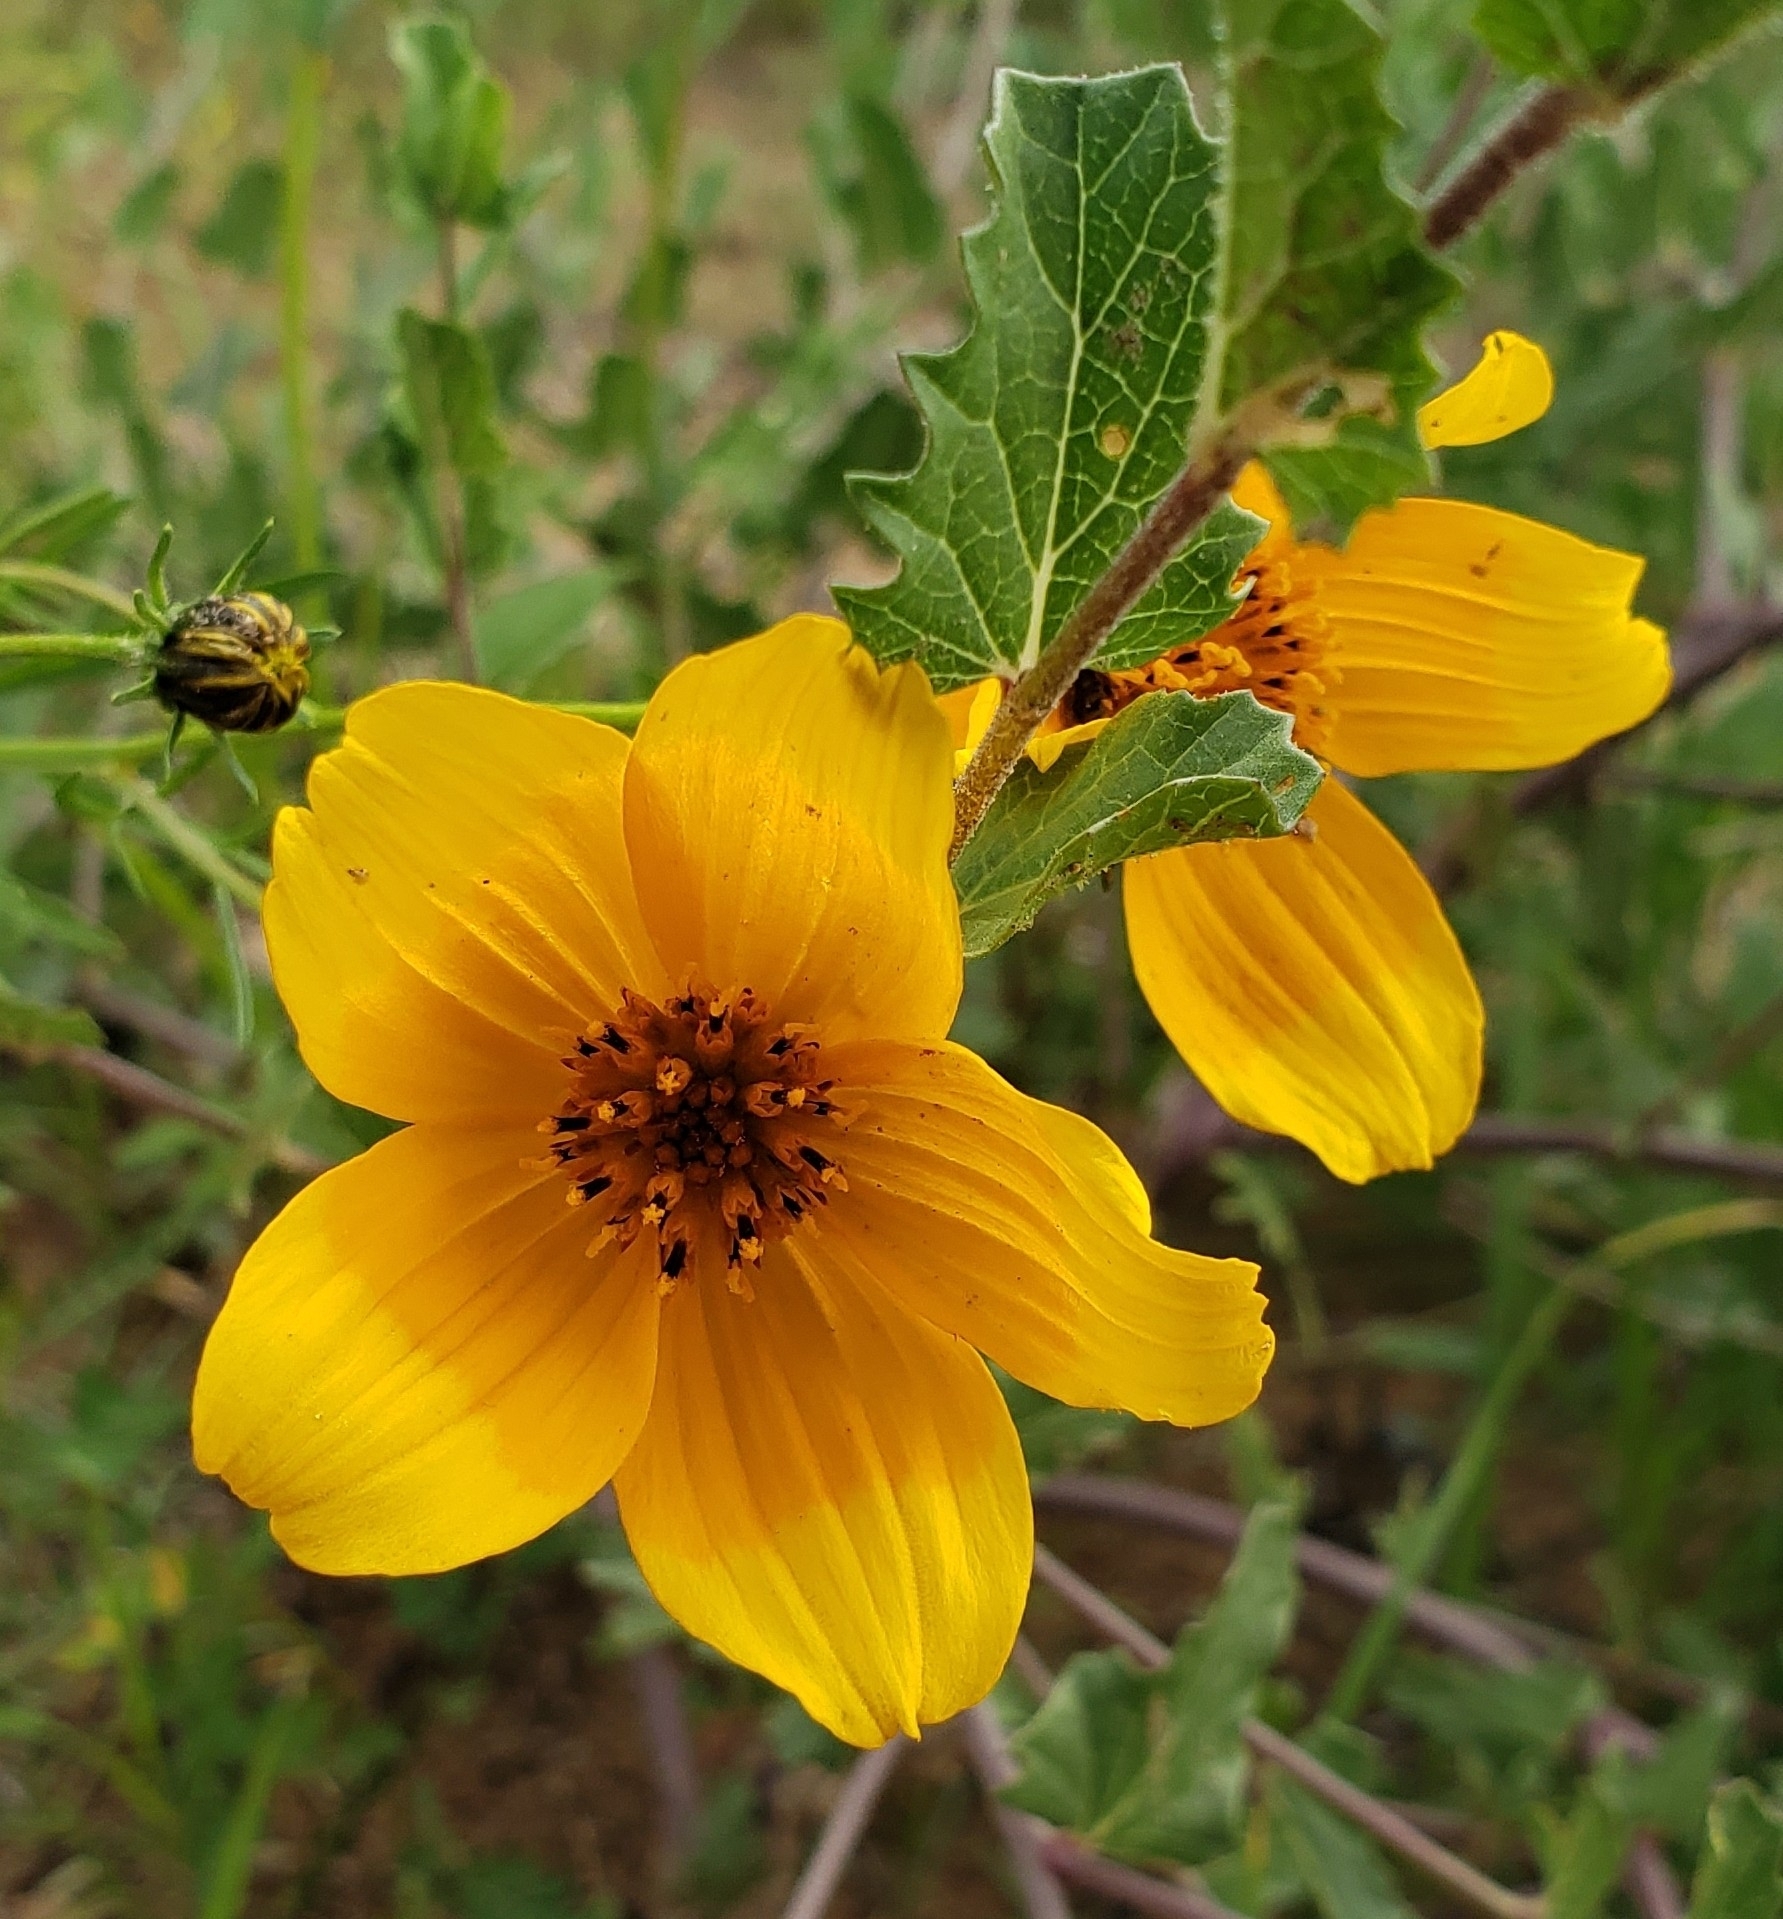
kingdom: Plantae
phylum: Tracheophyta
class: Magnoliopsida
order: Asterales
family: Asteraceae
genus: Sclerocarpus
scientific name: Sclerocarpus uniserialis
